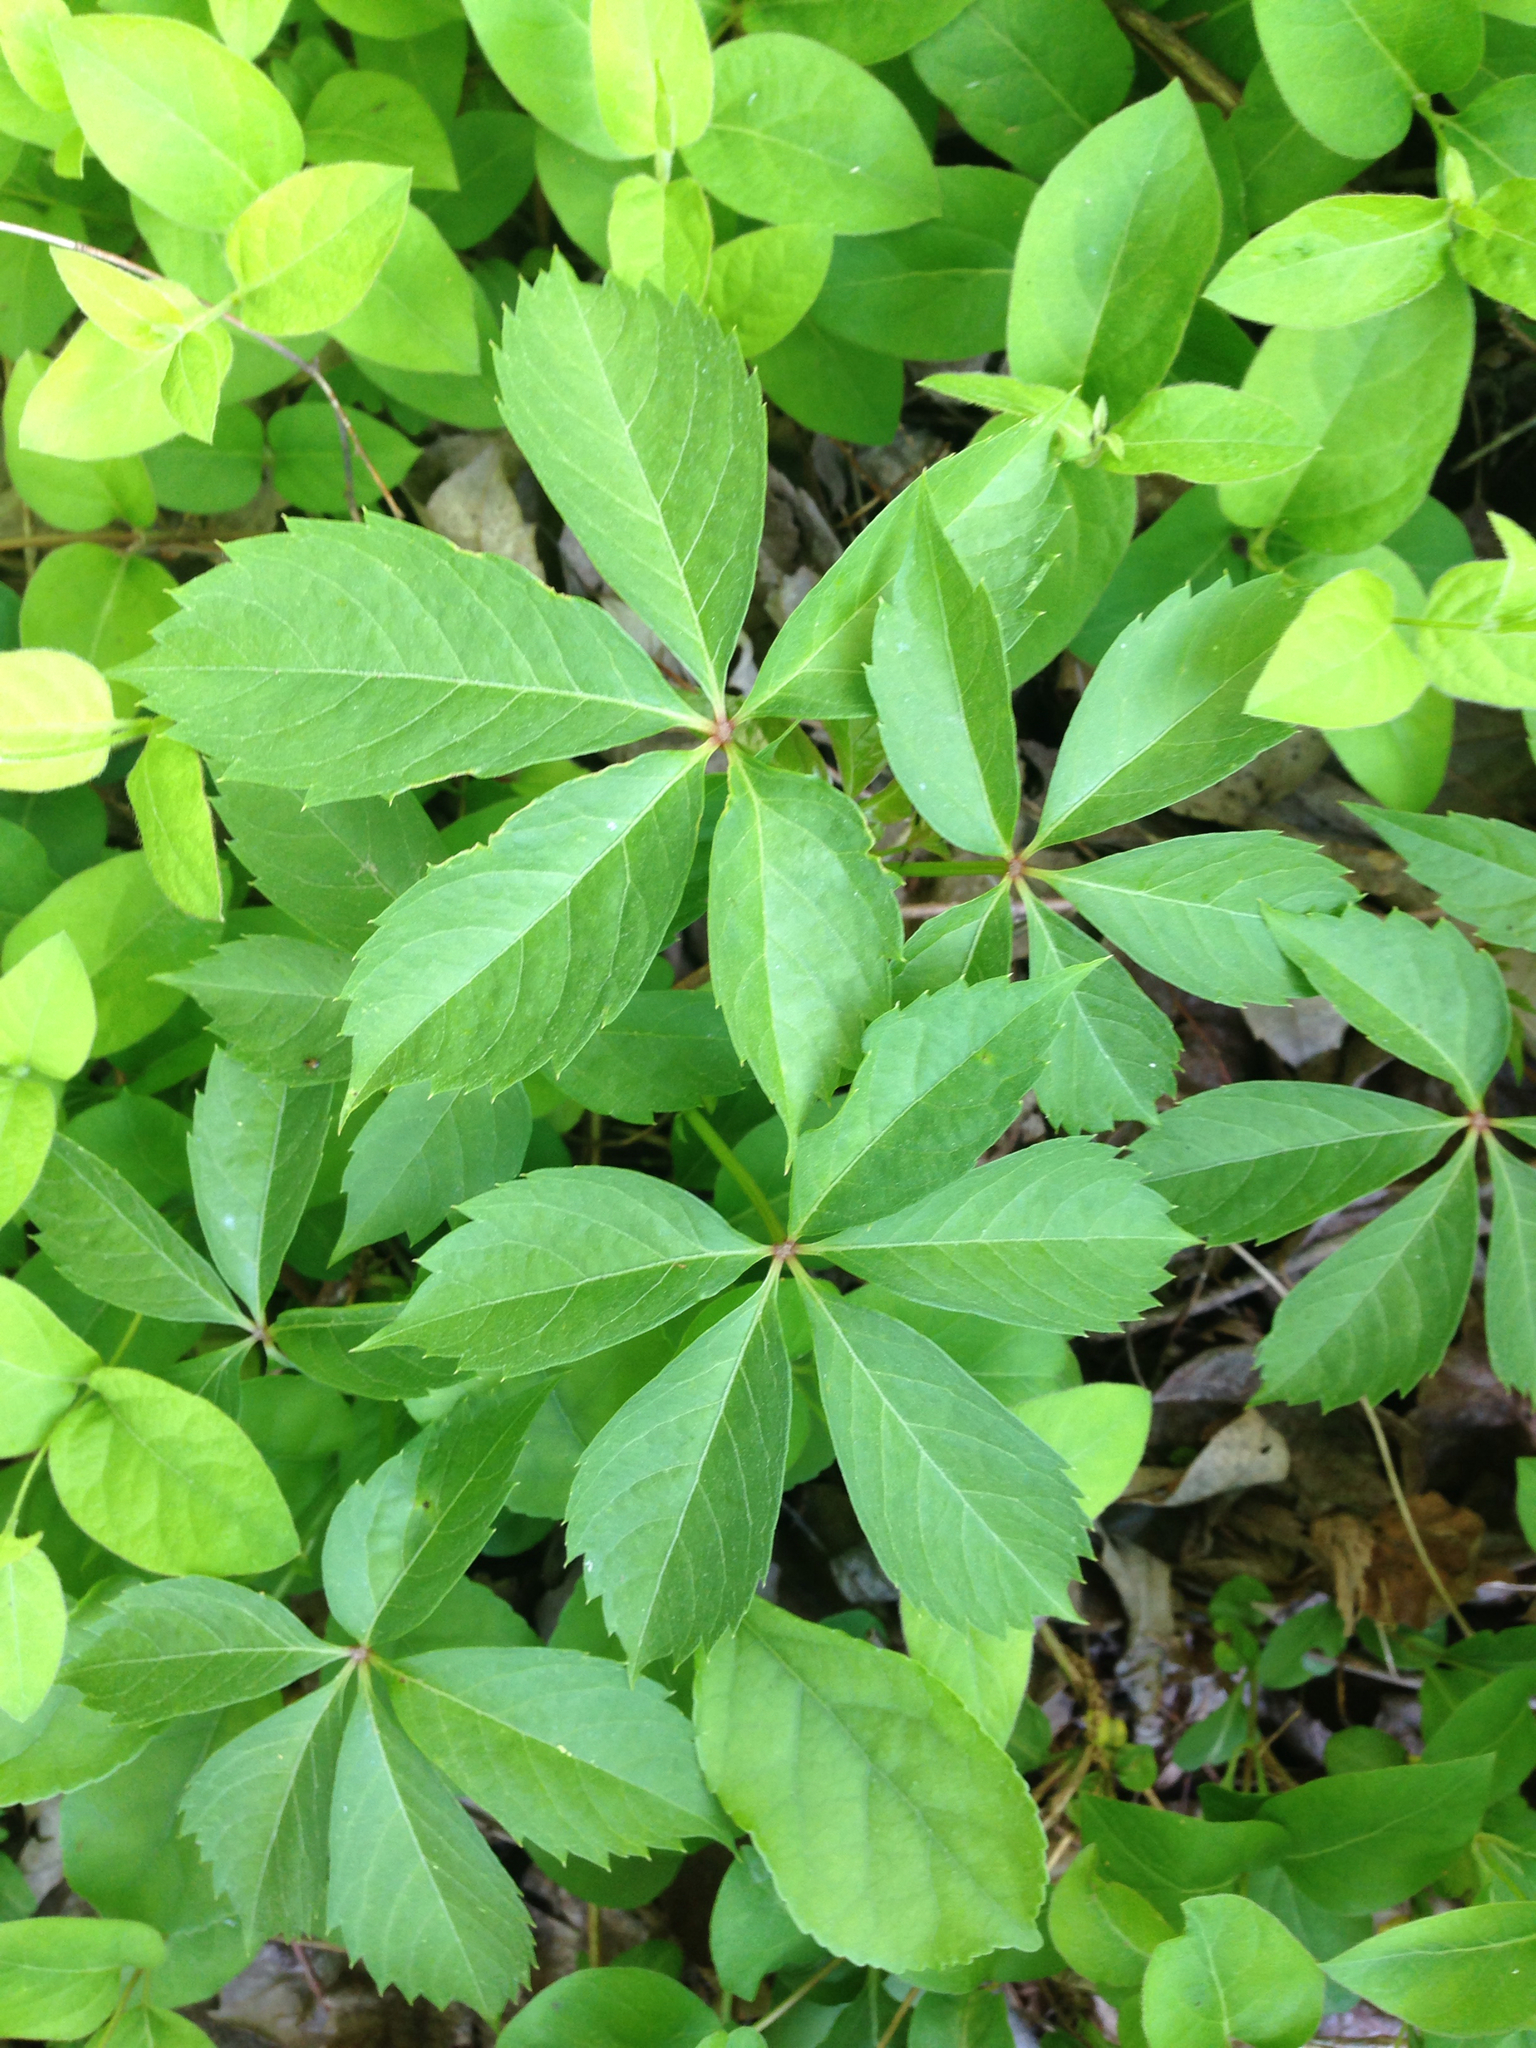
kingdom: Plantae
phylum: Tracheophyta
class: Magnoliopsida
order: Vitales
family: Vitaceae
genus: Parthenocissus
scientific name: Parthenocissus quinquefolia
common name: Virginia-creeper
